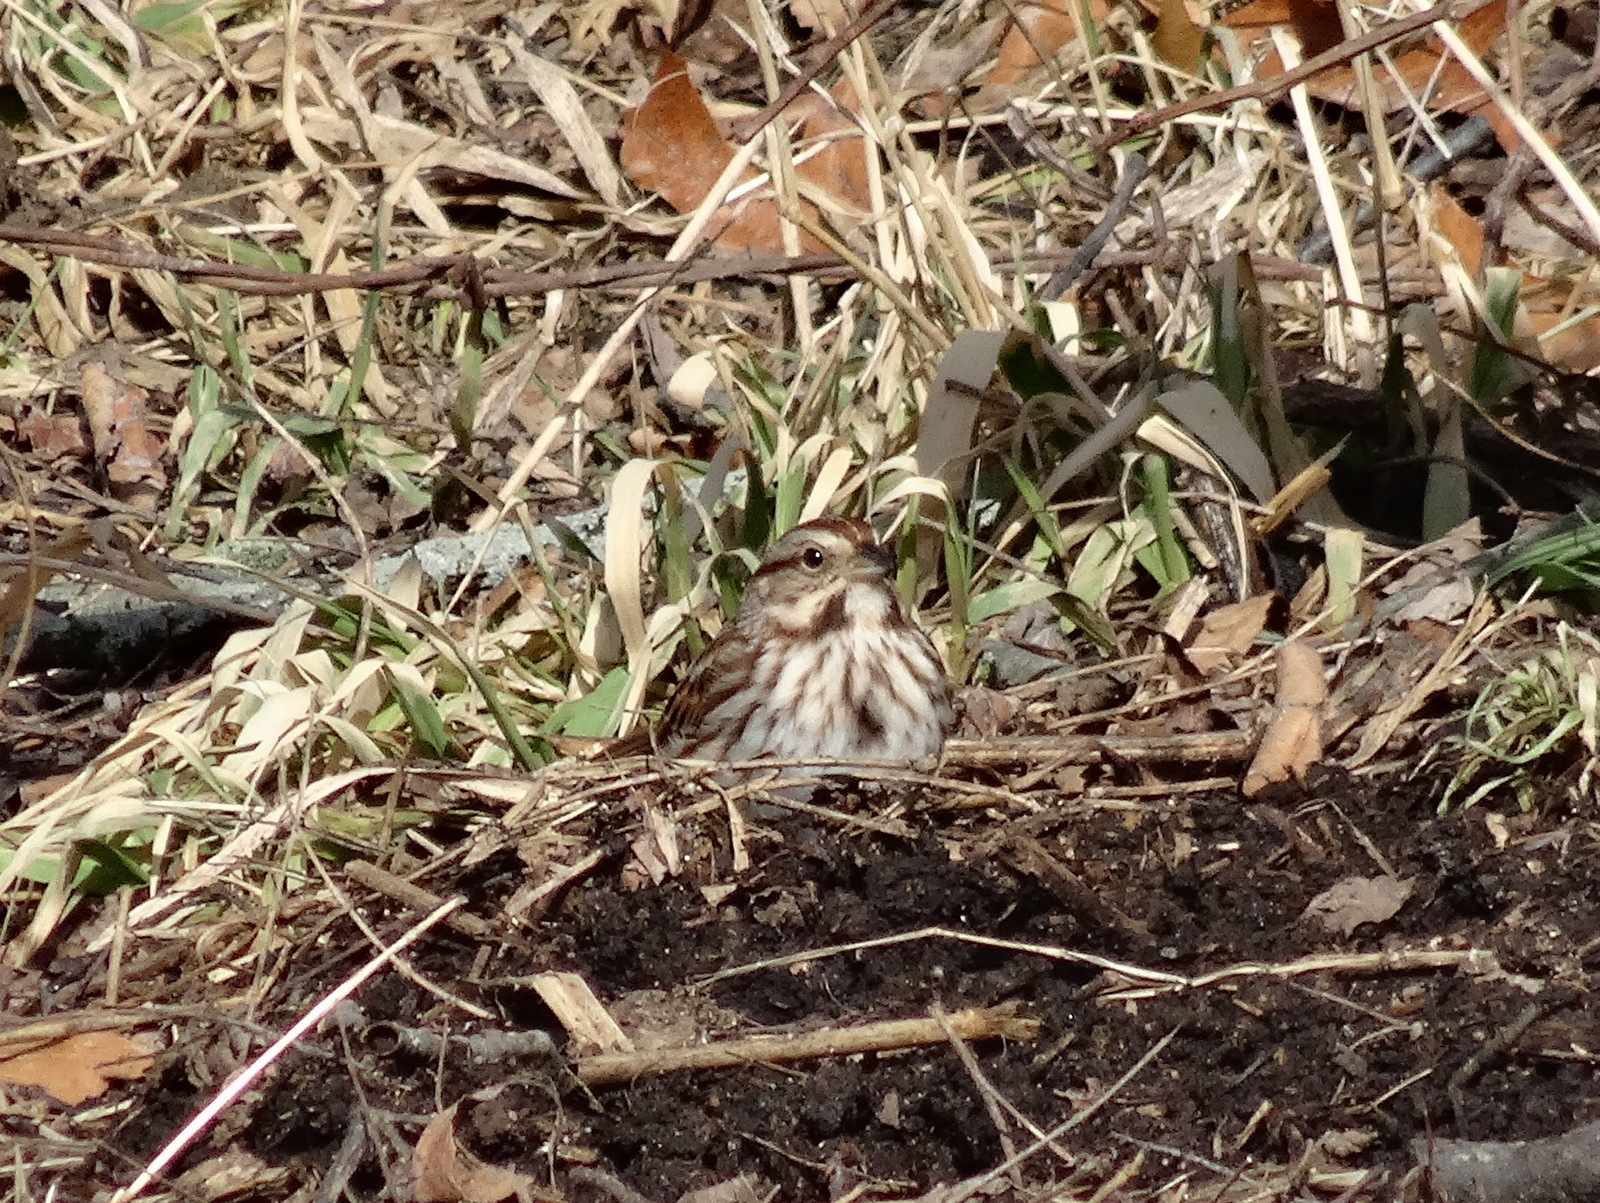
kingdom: Animalia
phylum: Chordata
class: Aves
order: Passeriformes
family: Passerellidae
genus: Melospiza
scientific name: Melospiza melodia
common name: Song sparrow
